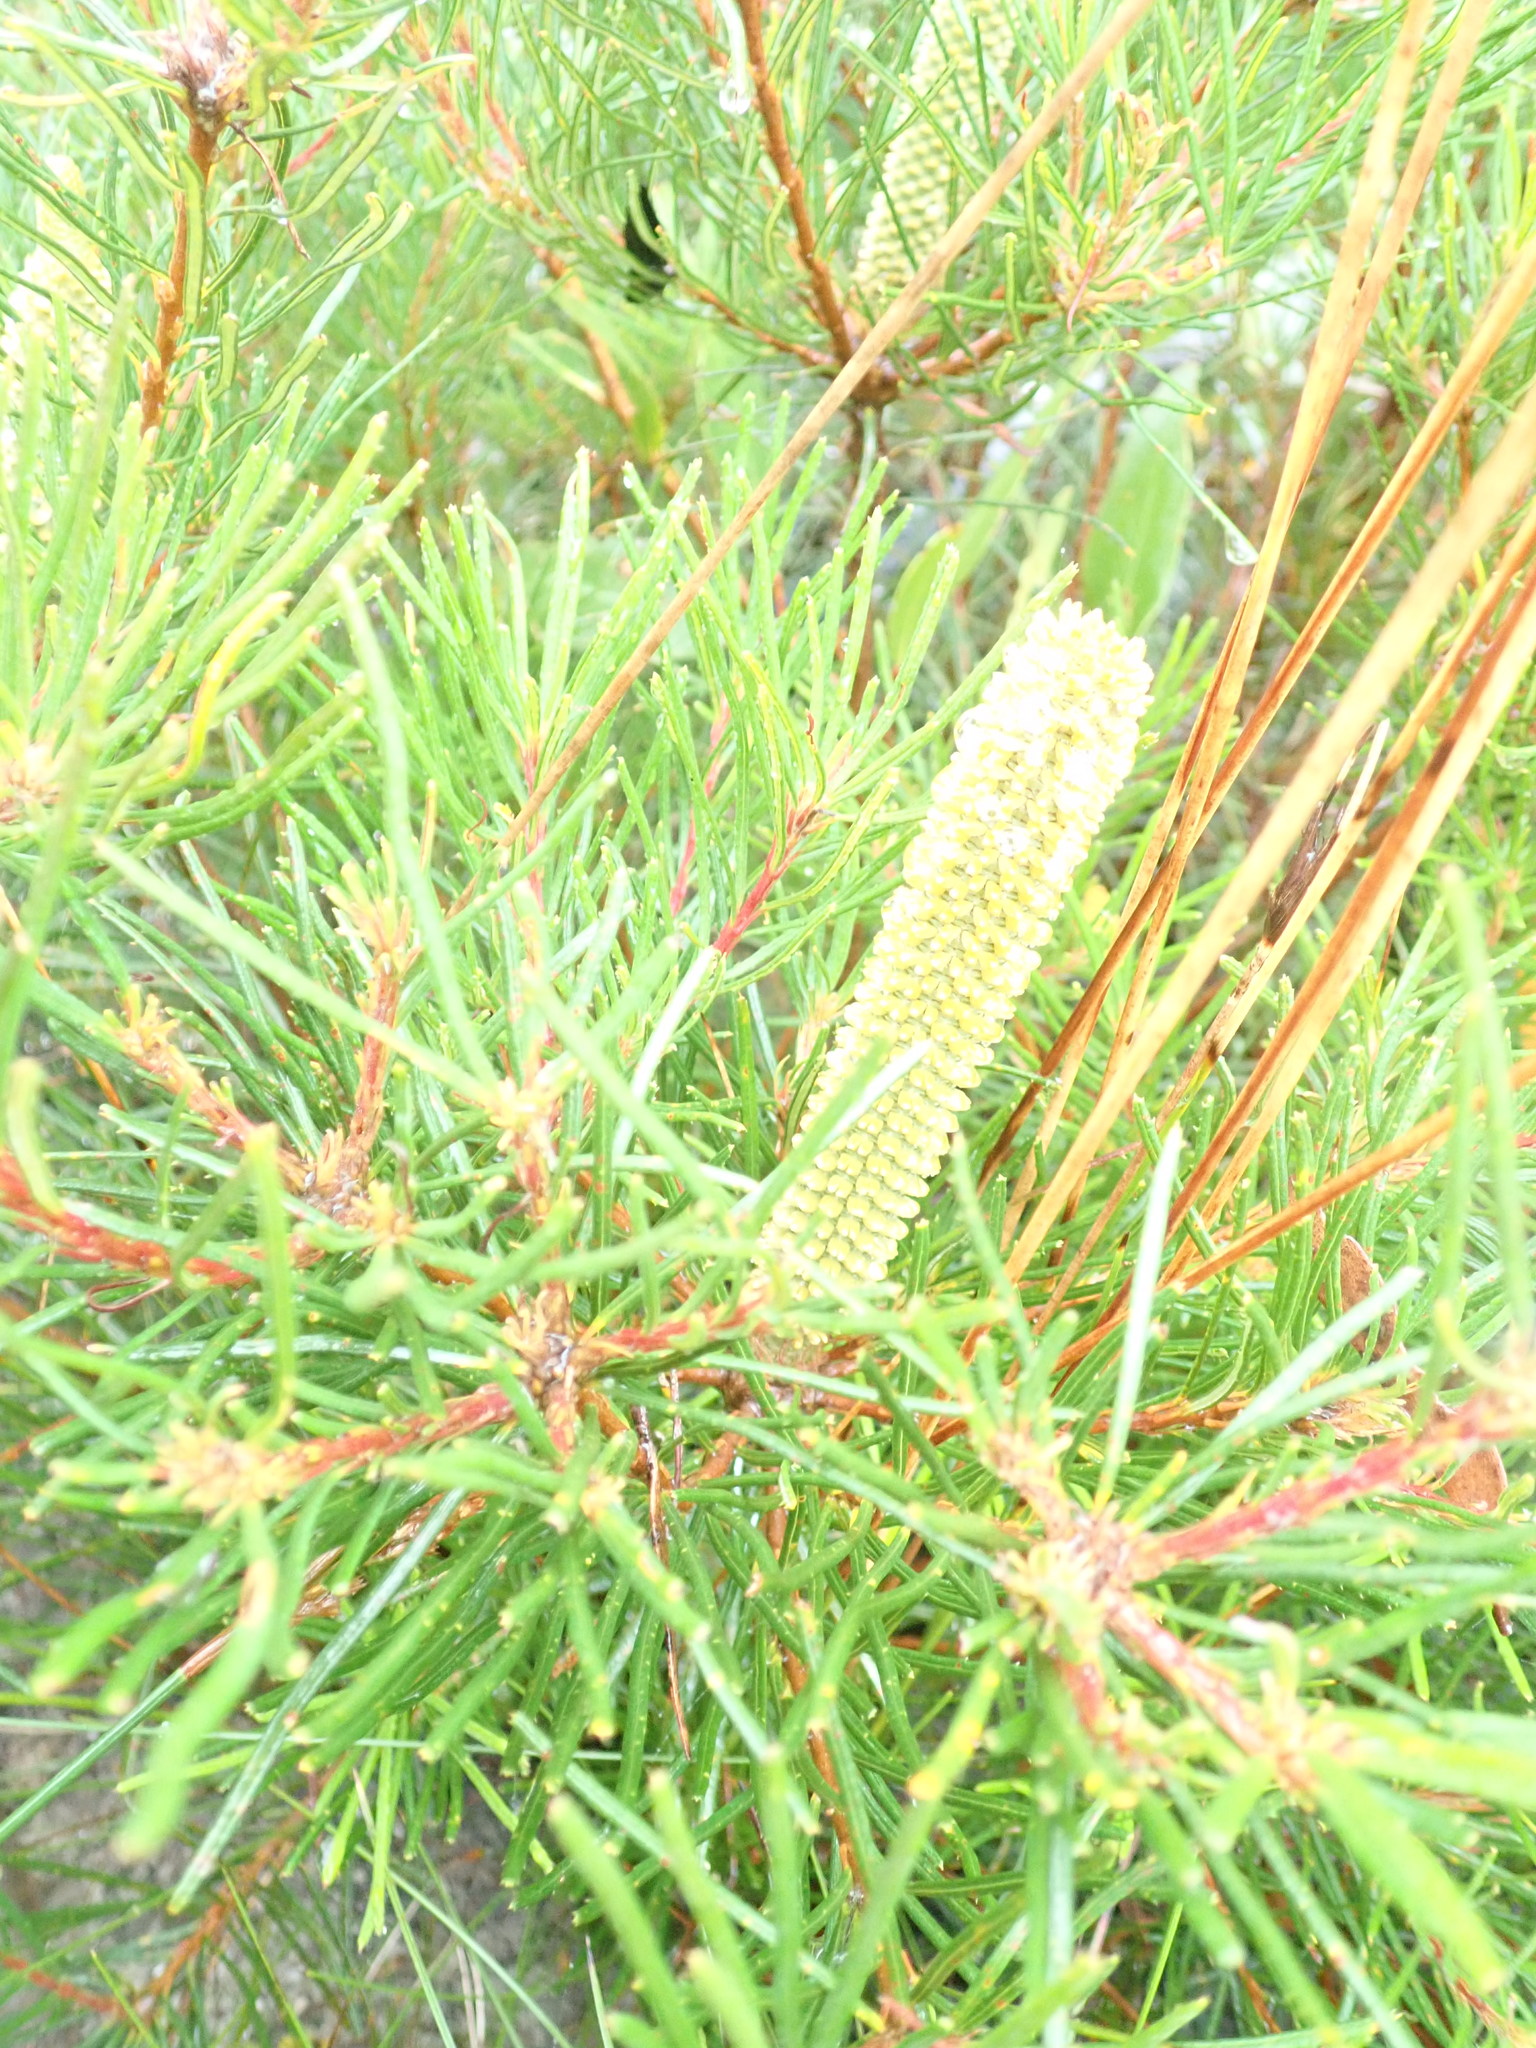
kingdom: Plantae
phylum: Tracheophyta
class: Magnoliopsida
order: Proteales
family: Proteaceae
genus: Banksia
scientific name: Banksia spinulosa
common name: Hairpin banksia
